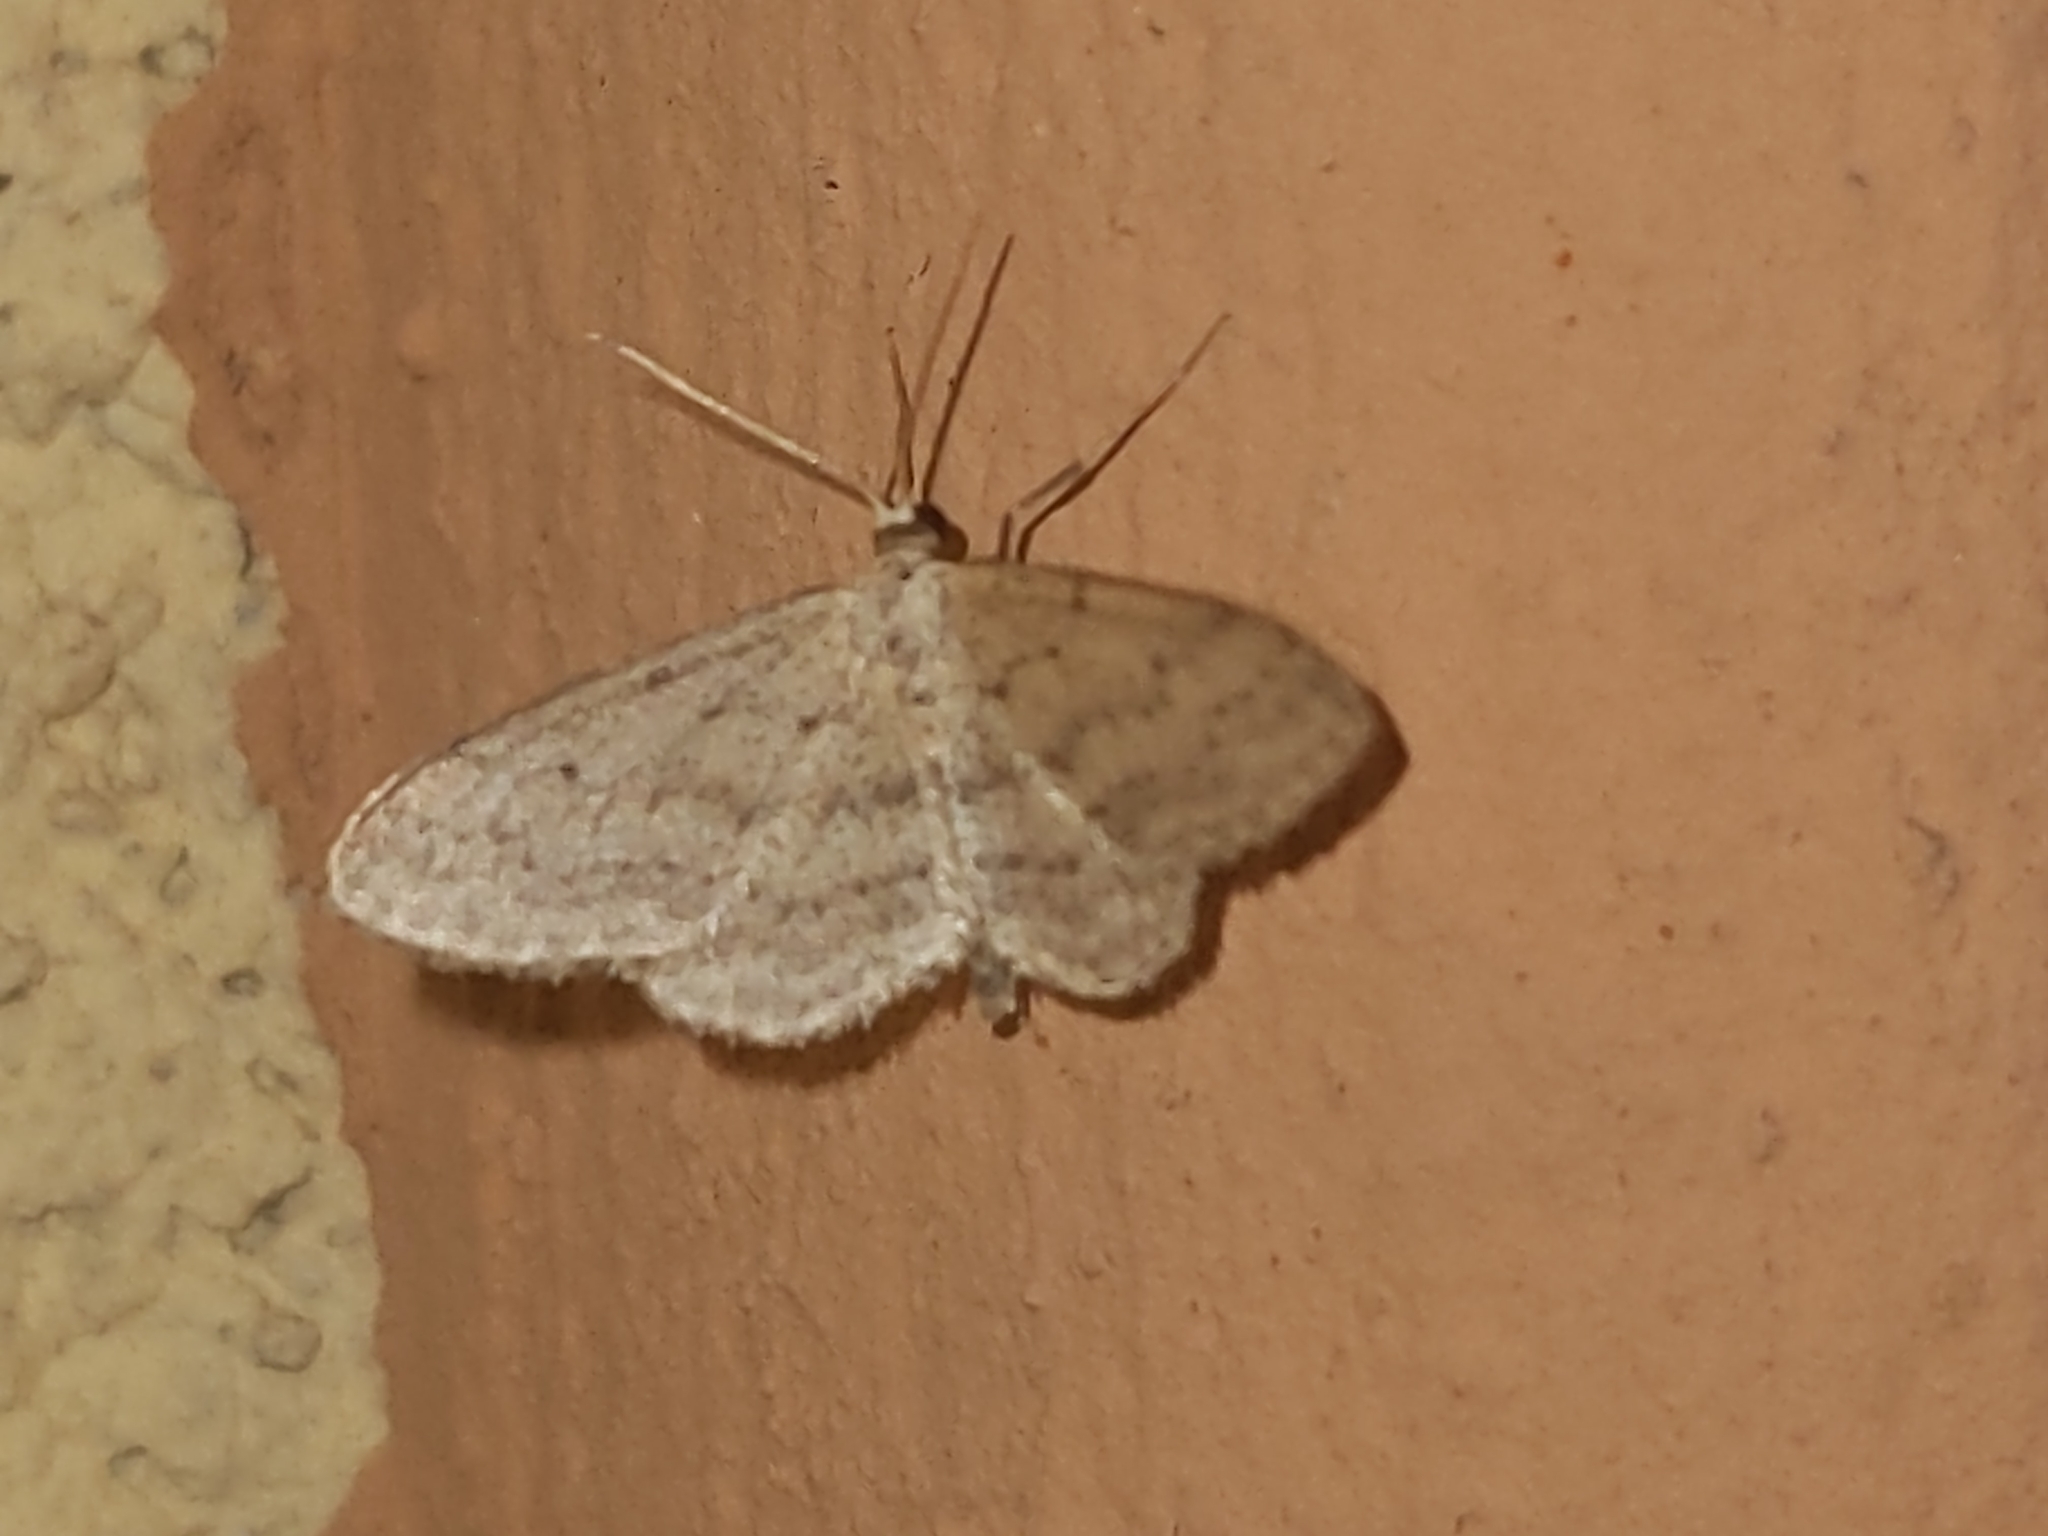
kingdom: Animalia
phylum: Arthropoda
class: Insecta
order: Lepidoptera
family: Geometridae
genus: Idaea
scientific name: Idaea seriata
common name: Small dusty wave
